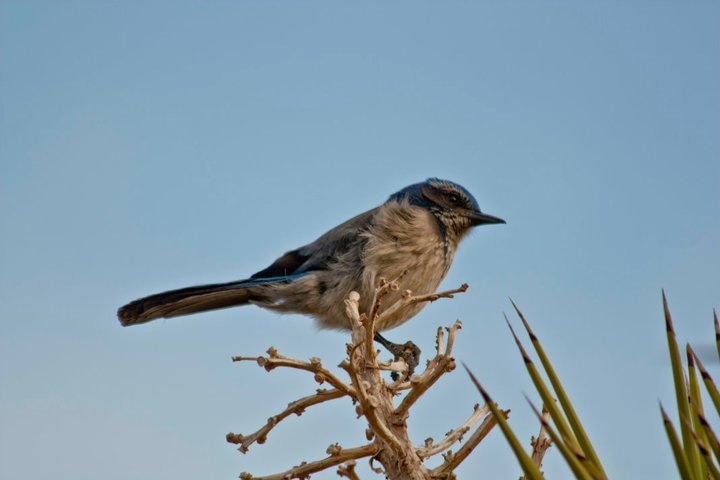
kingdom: Animalia
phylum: Chordata
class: Aves
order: Passeriformes
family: Corvidae
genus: Aphelocoma
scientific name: Aphelocoma californica
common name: California scrub-jay
